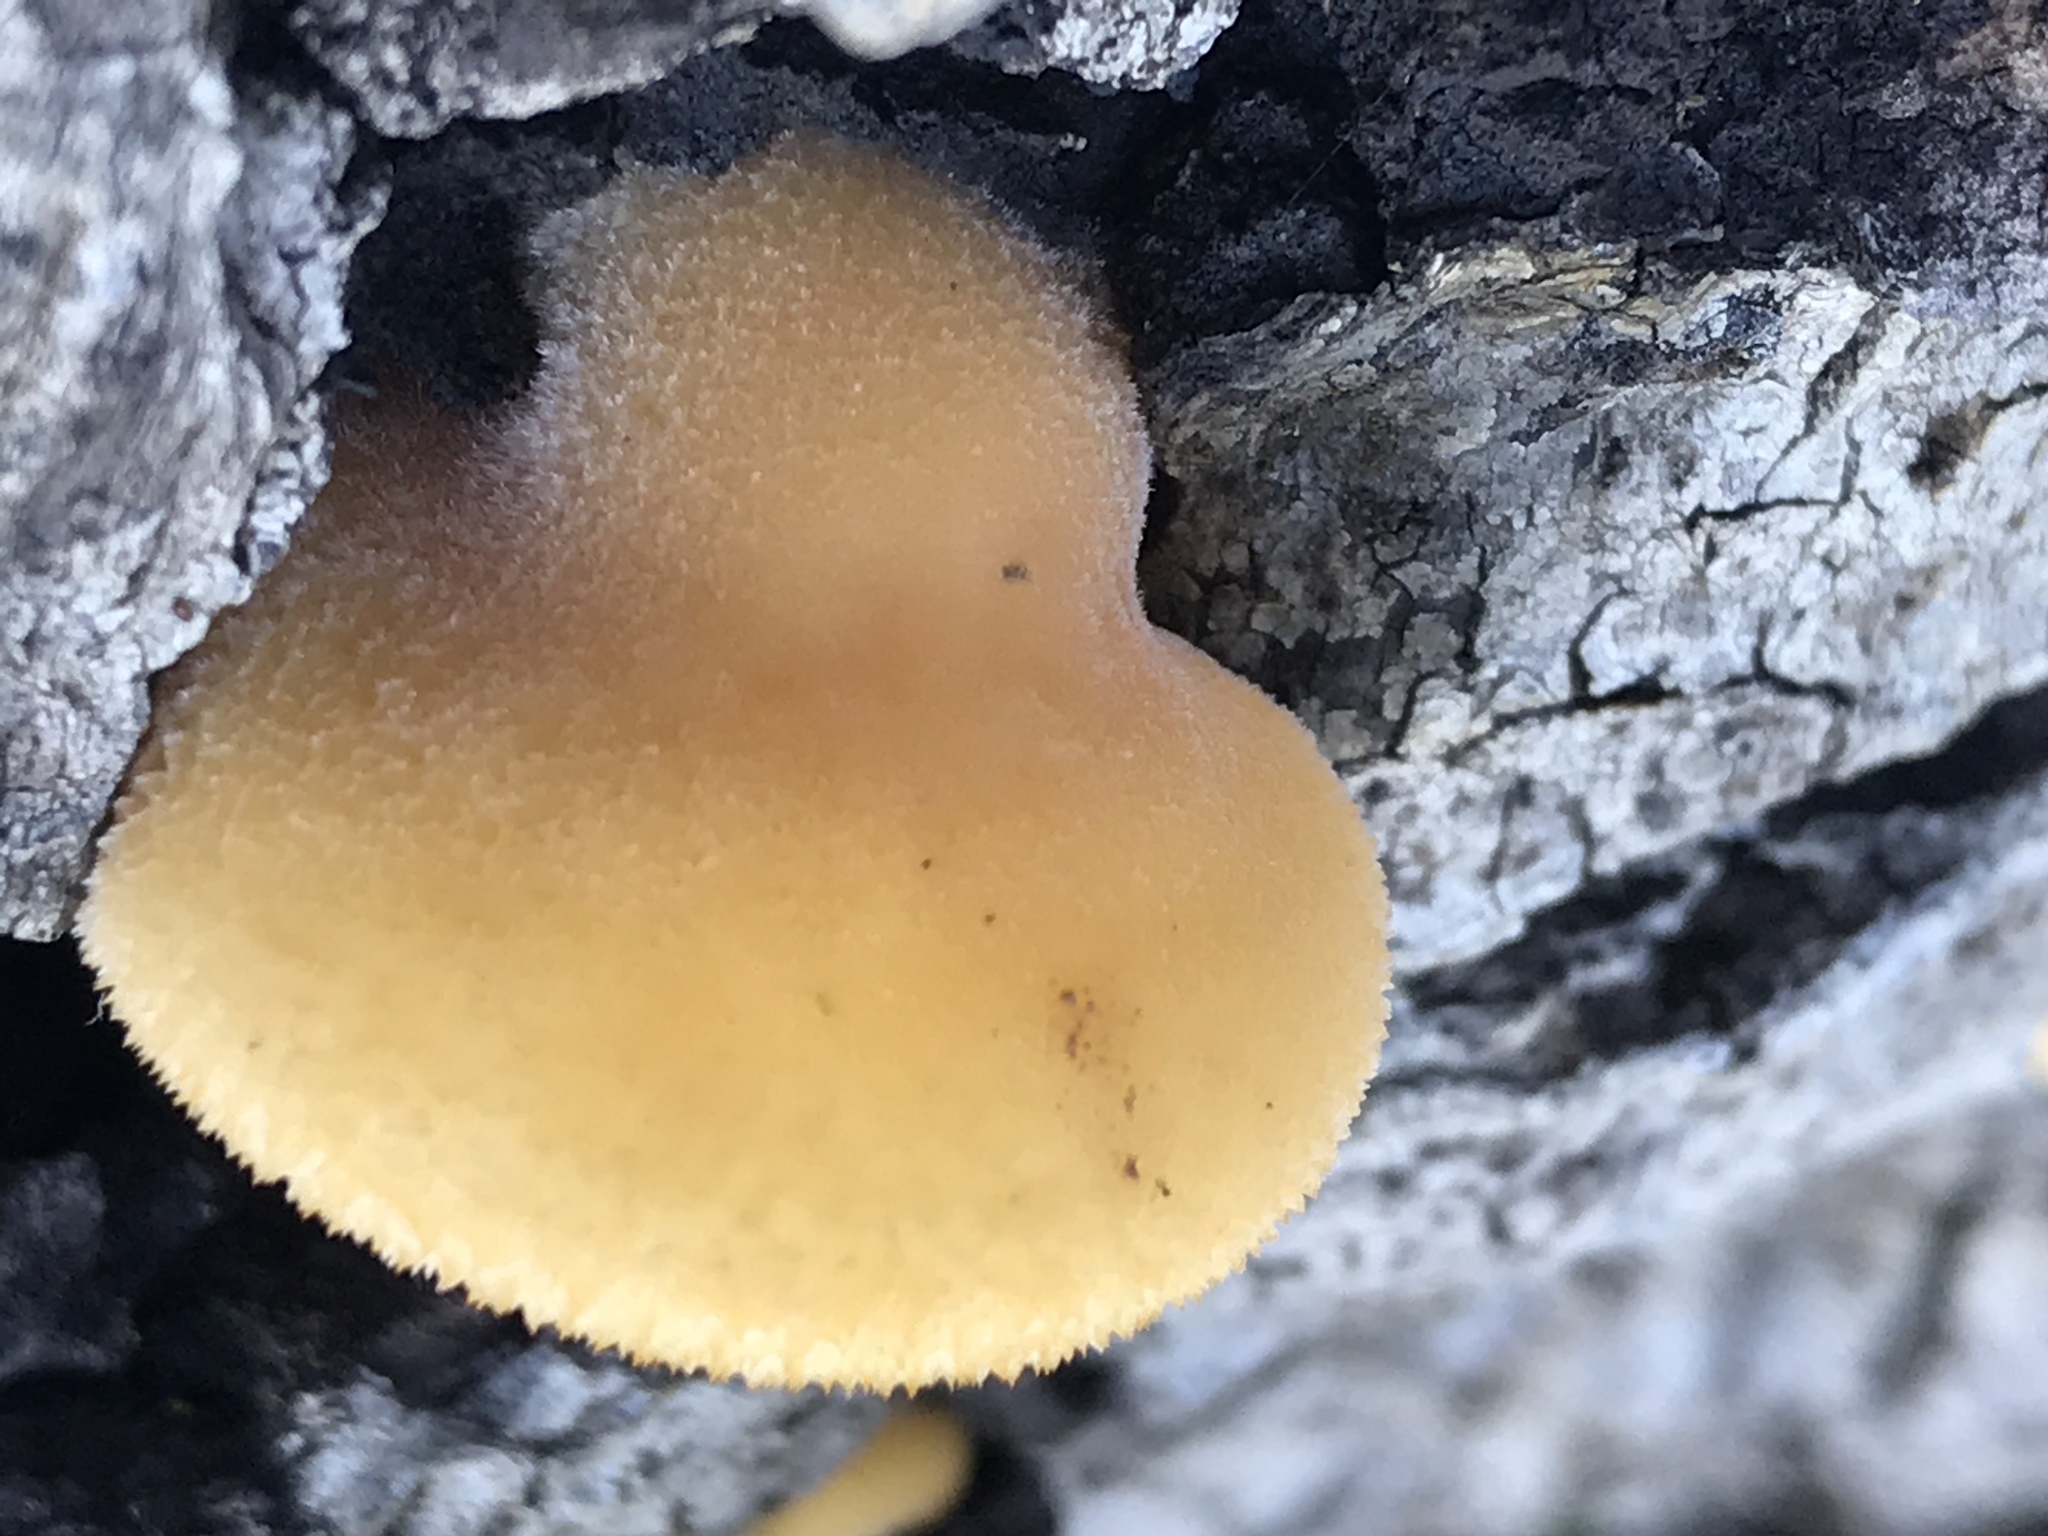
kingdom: Fungi
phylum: Basidiomycota
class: Agaricomycetes
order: Agaricales
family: Phyllotopsidaceae
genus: Phyllotopsis
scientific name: Phyllotopsis nidulans
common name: Orange mock oyster
